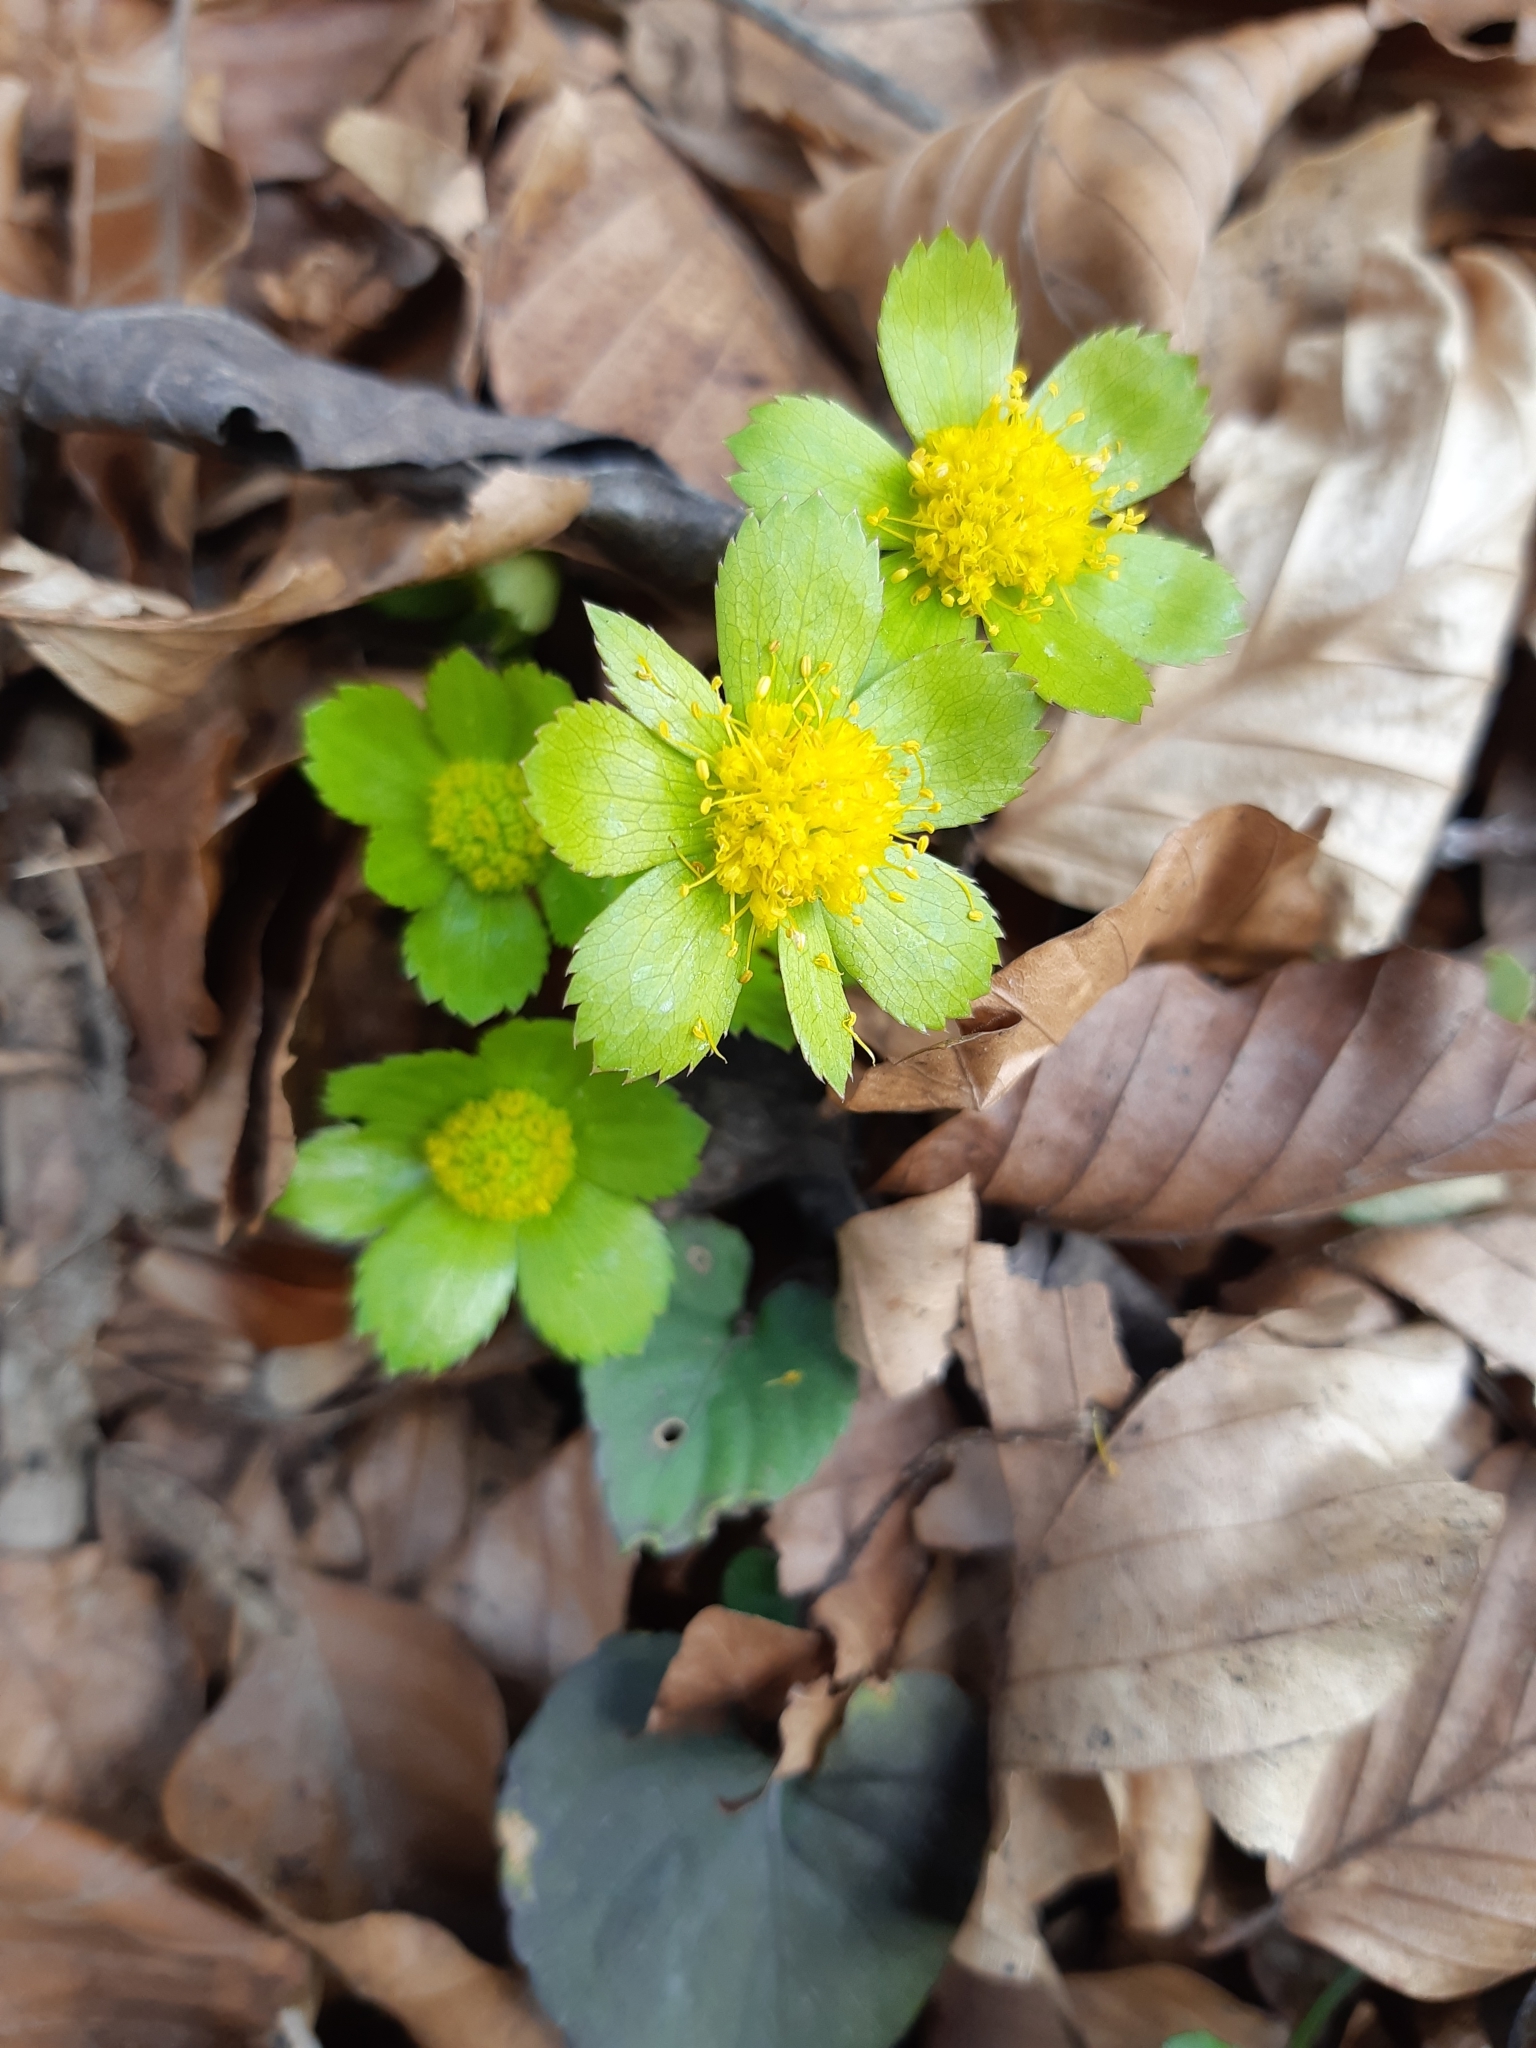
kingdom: Plantae
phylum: Tracheophyta
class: Magnoliopsida
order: Apiales
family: Apiaceae
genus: Sanicula
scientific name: Sanicula epipactis
